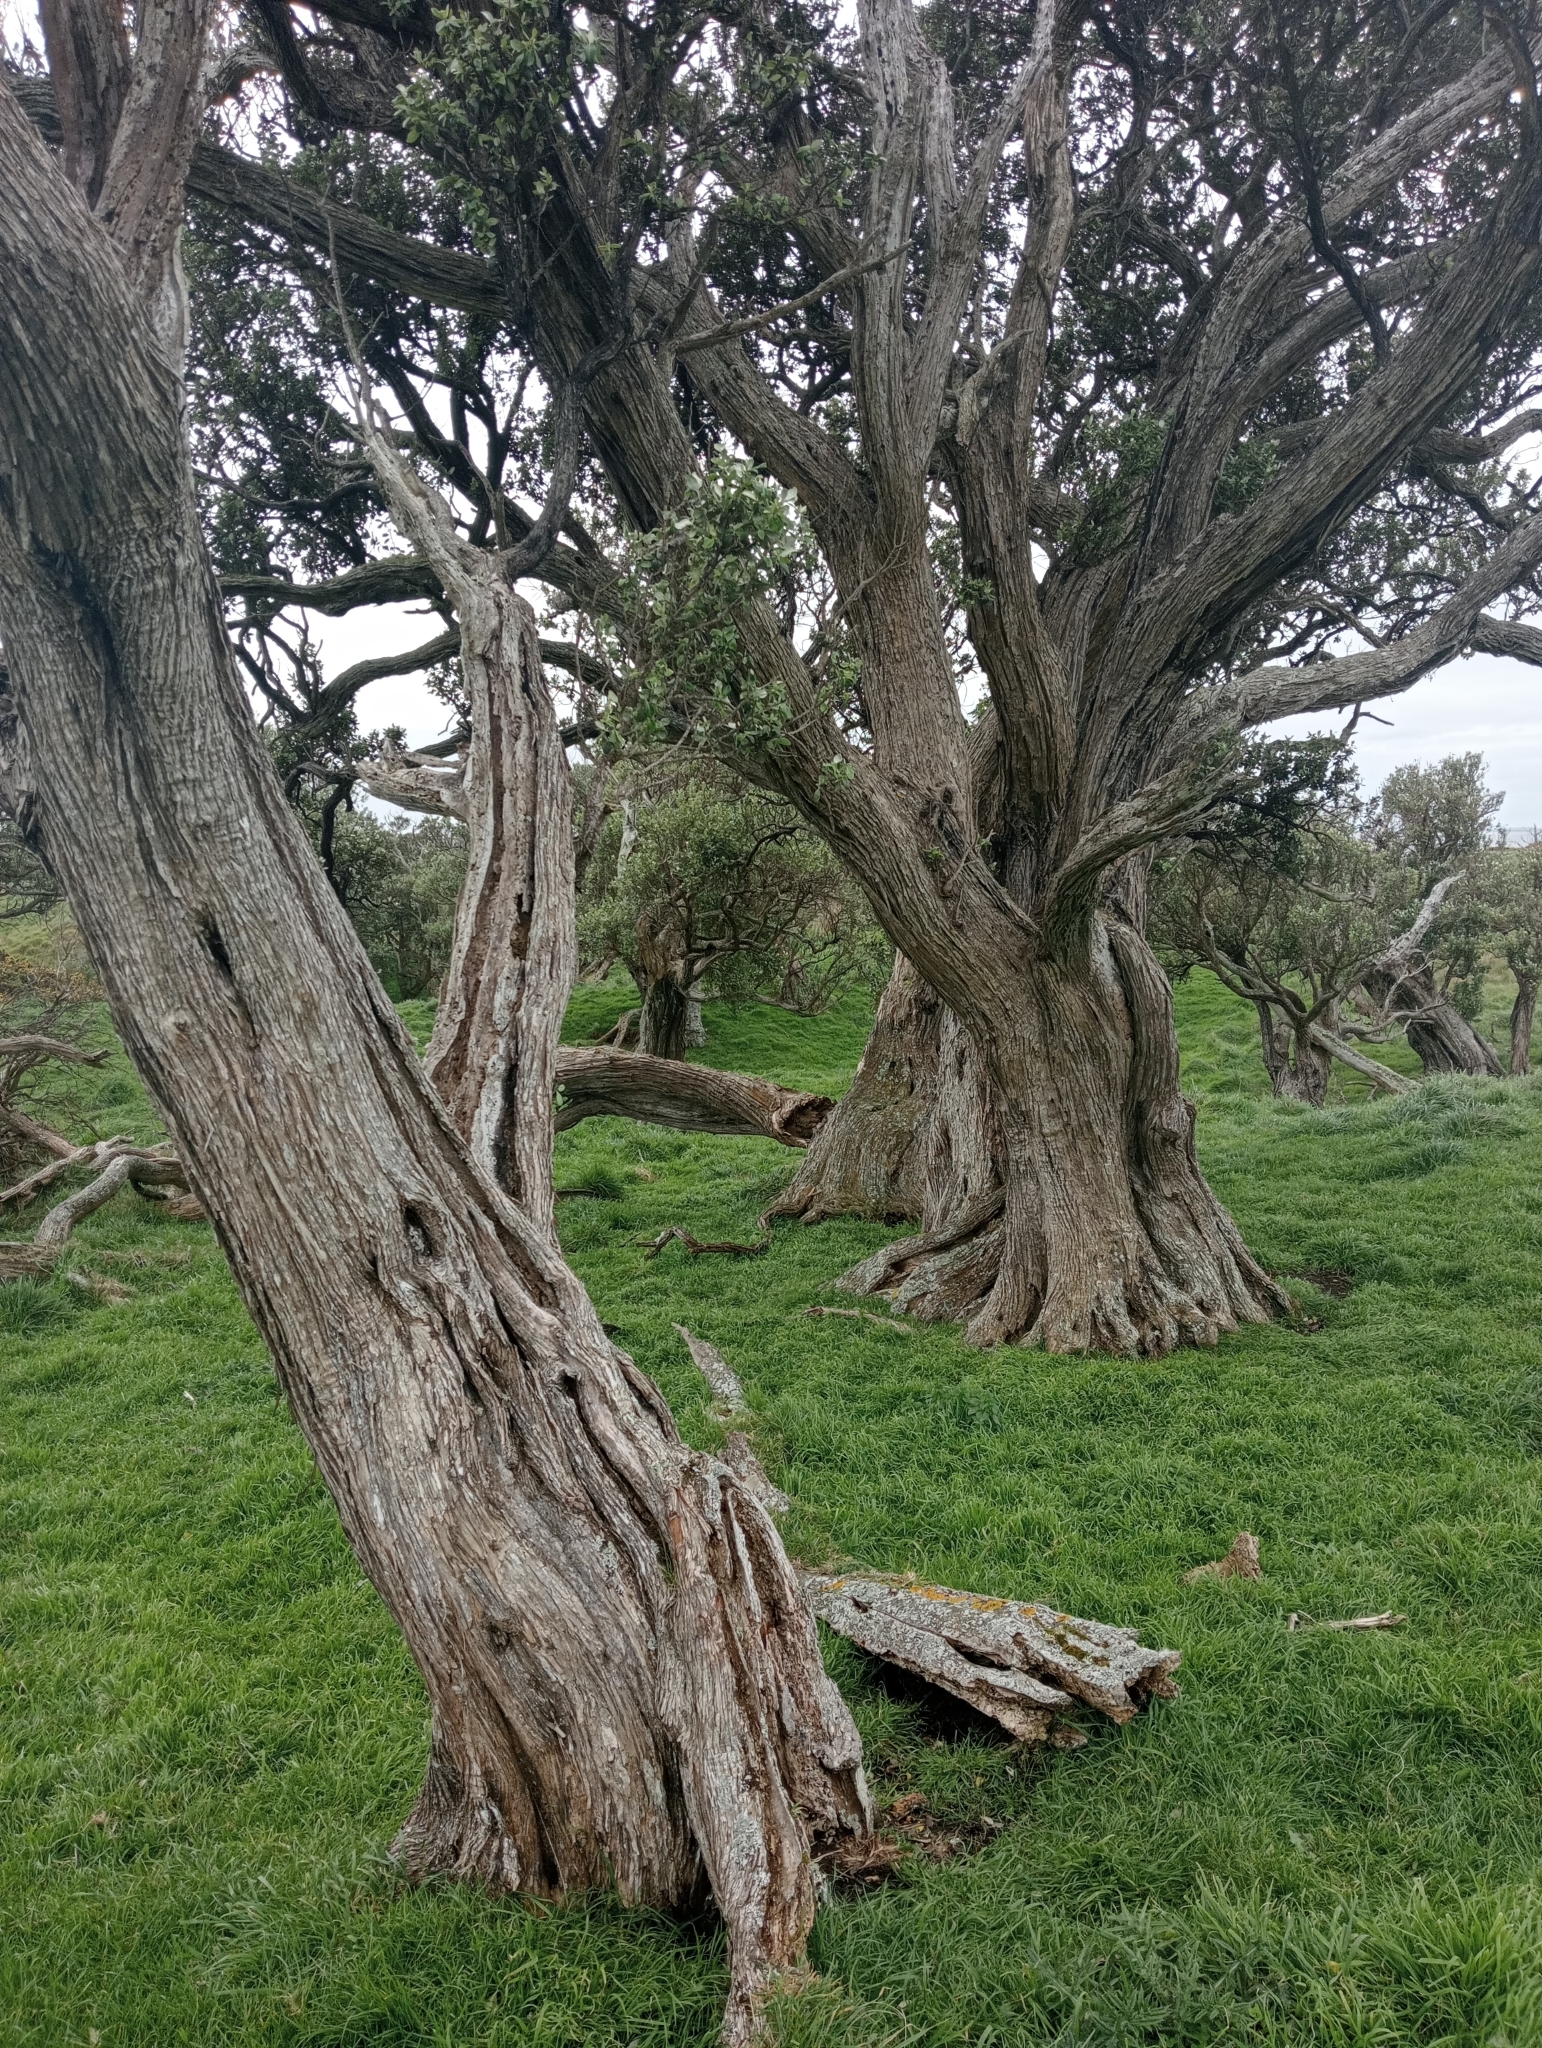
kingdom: Plantae
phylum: Tracheophyta
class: Magnoliopsida
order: Asterales
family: Asteraceae
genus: Olearia
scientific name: Olearia traversiorum
